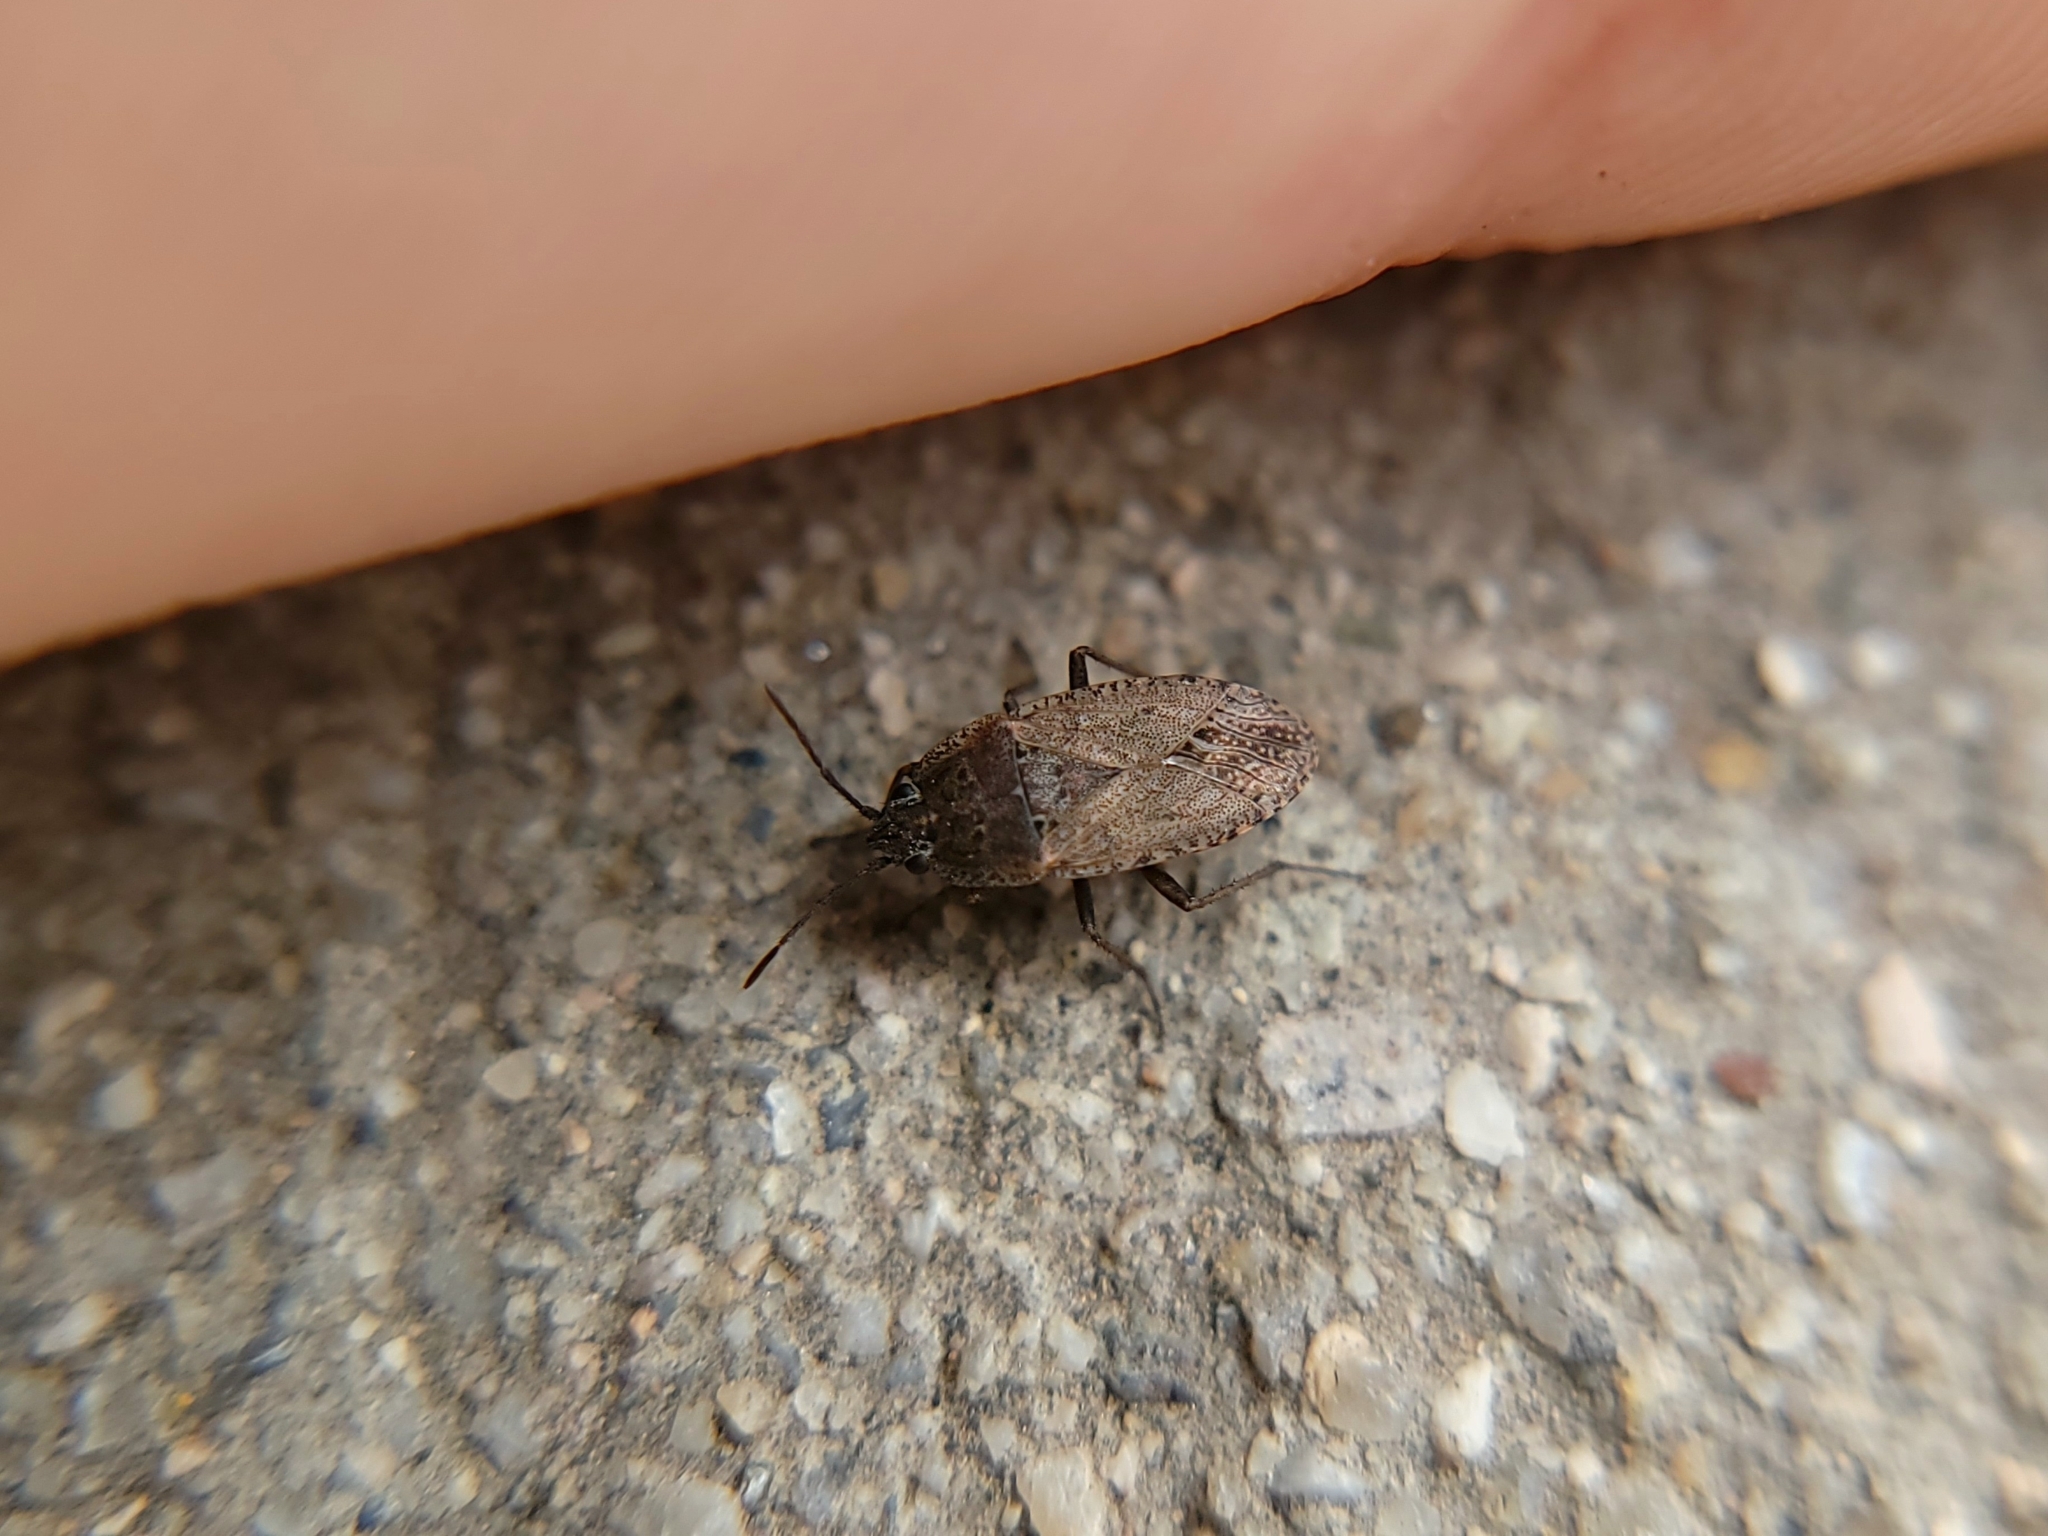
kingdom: Animalia
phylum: Arthropoda
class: Insecta
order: Hemiptera
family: Rhyparochromidae
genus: Emblethis
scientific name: Emblethis vicarius
